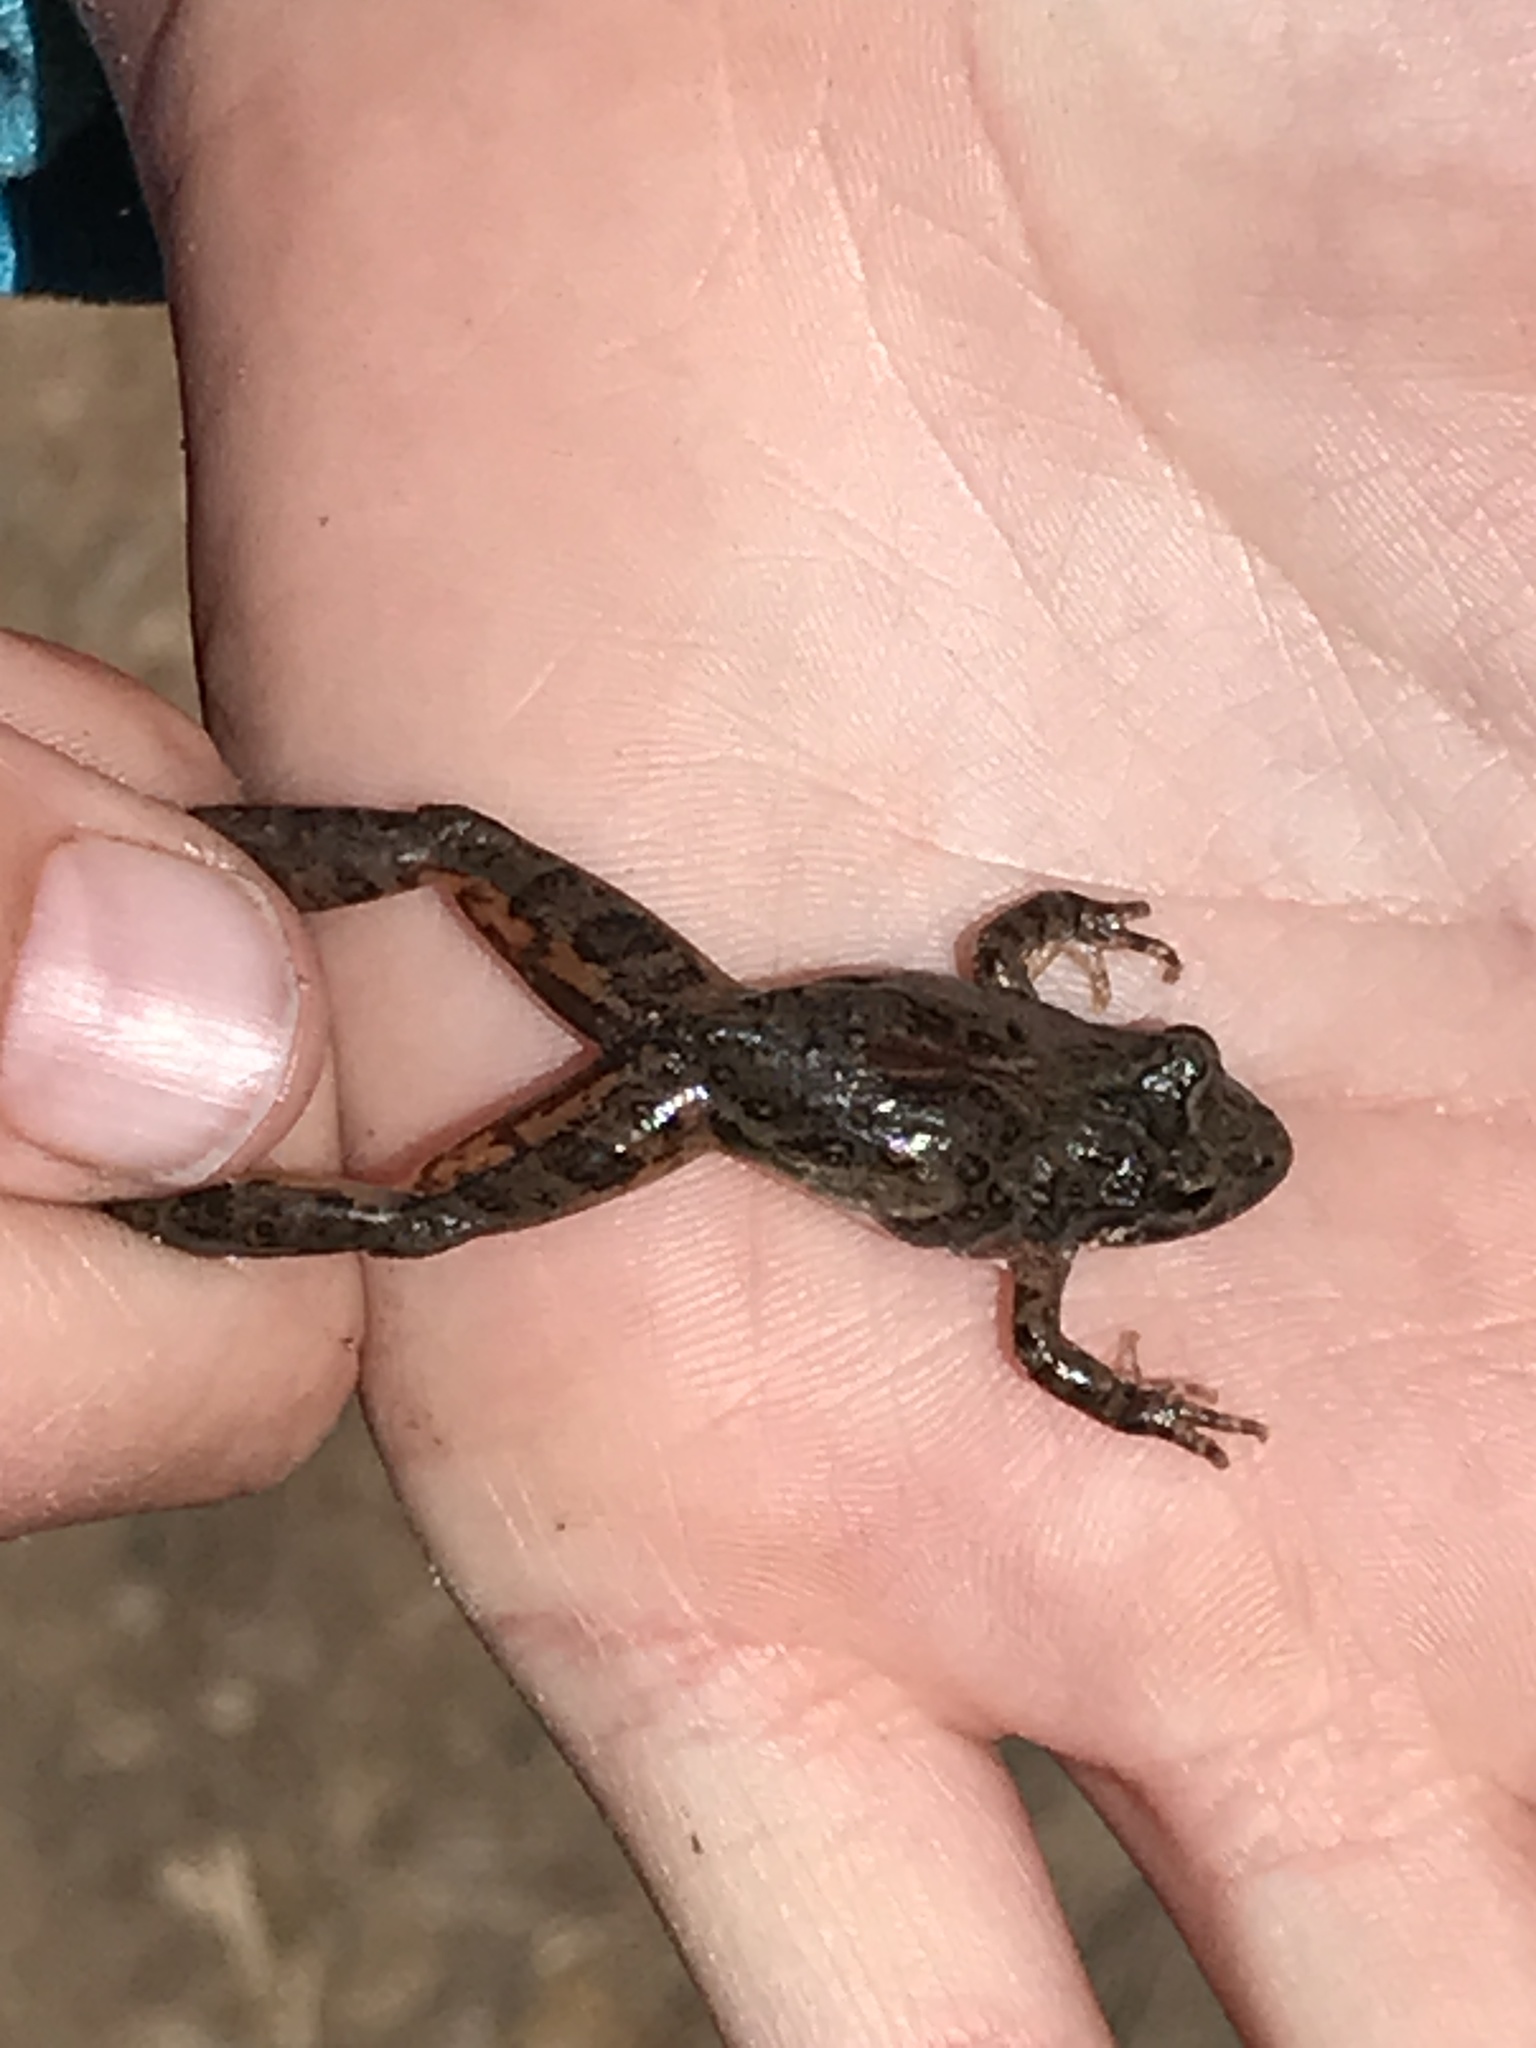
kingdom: Animalia
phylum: Chordata
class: Amphibia
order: Anura
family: Hylidae
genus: Acris
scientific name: Acris blanchardi
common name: Blanchard's cricket frog
